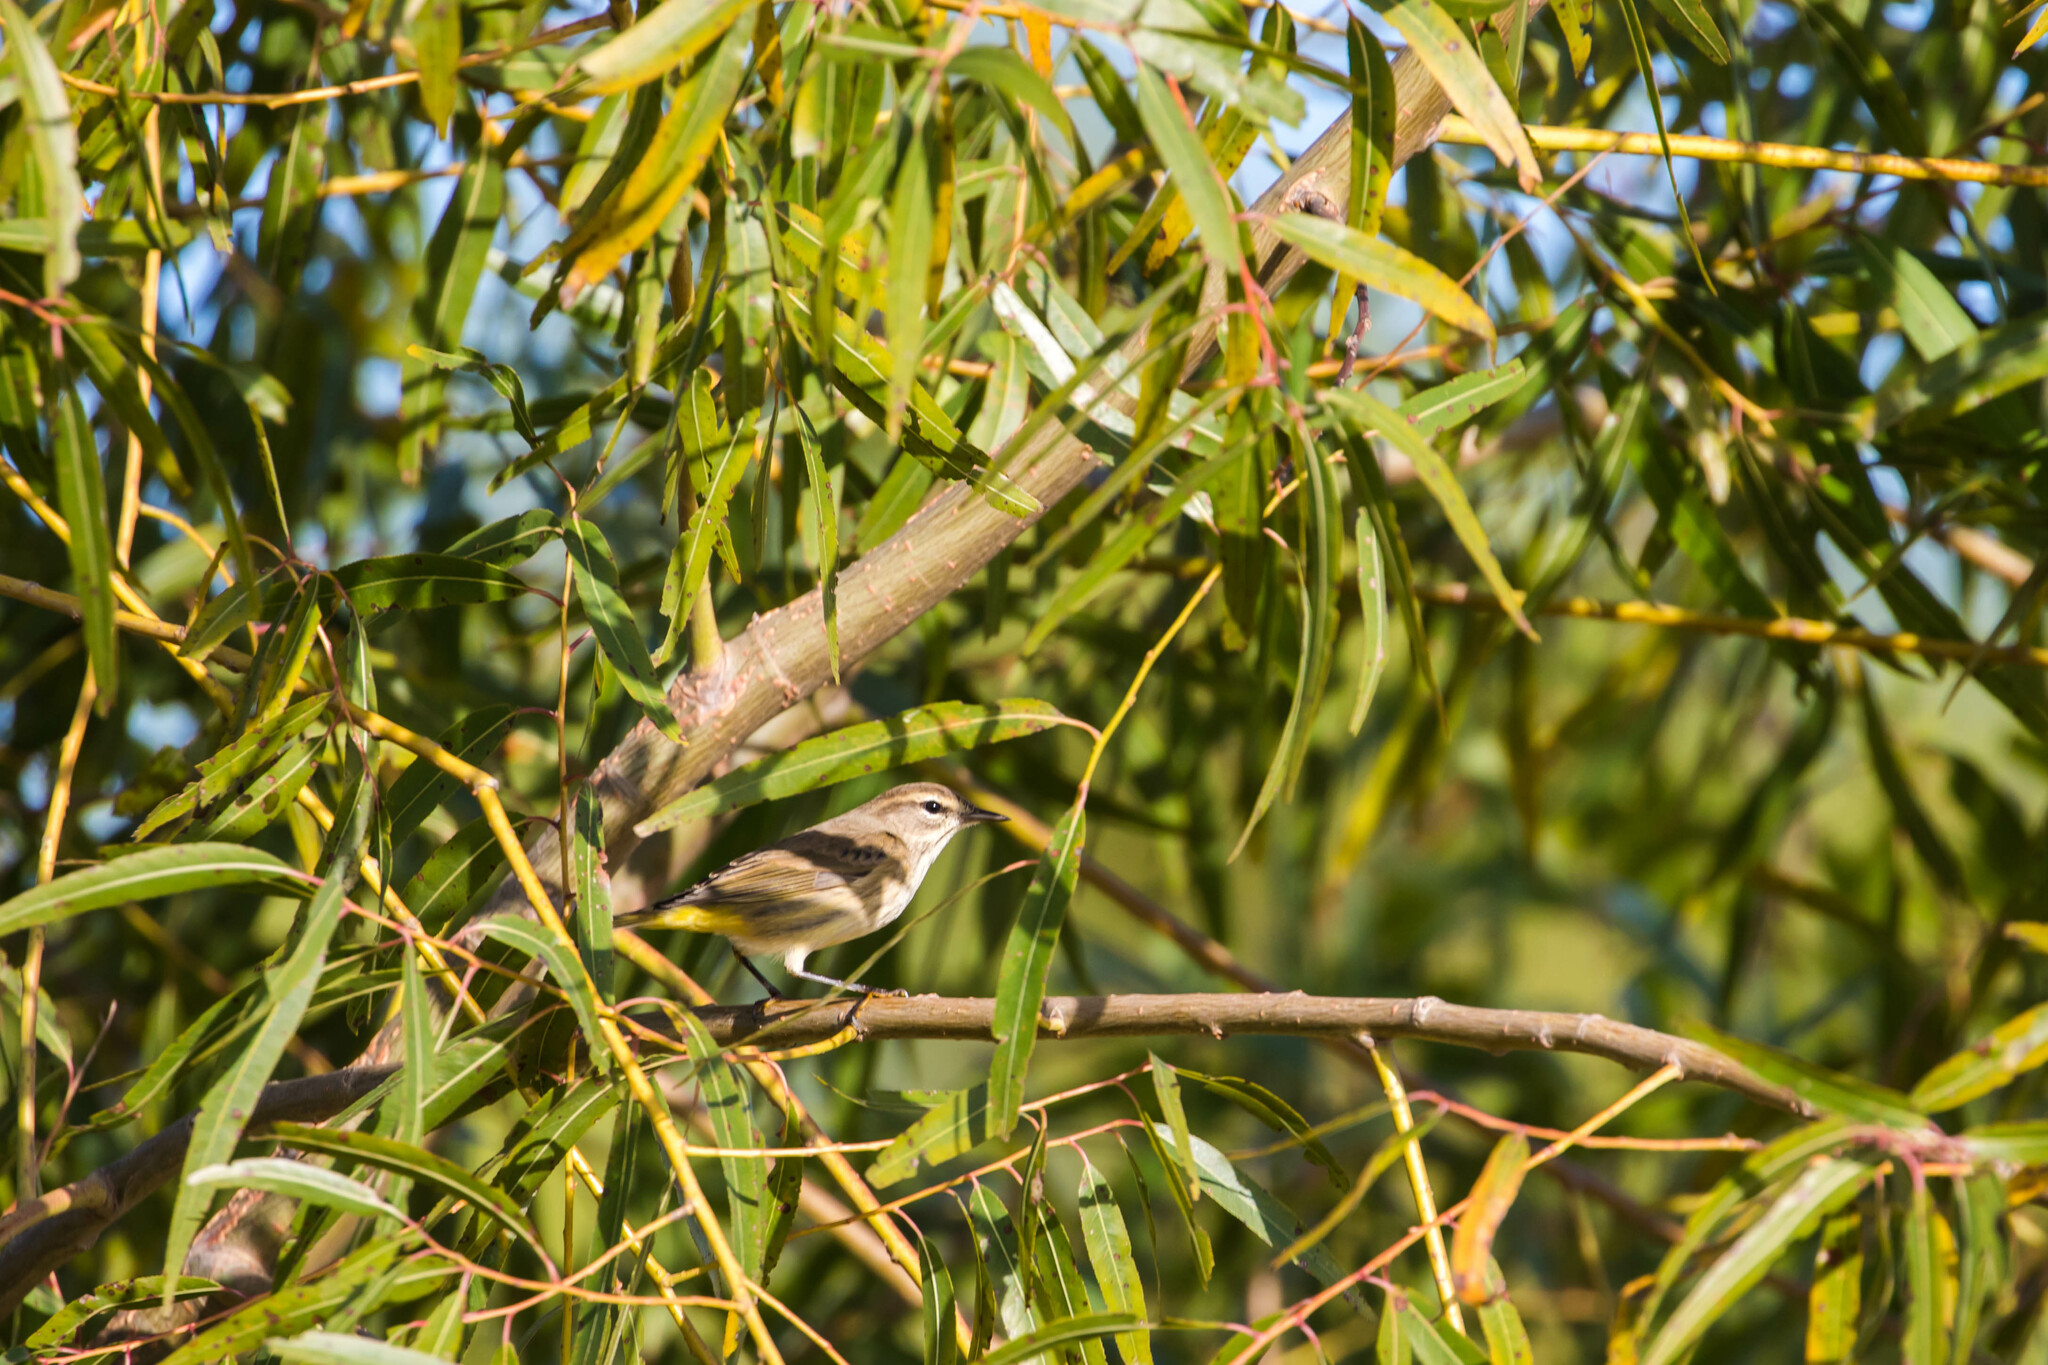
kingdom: Animalia
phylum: Chordata
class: Aves
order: Passeriformes
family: Parulidae
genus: Setophaga
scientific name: Setophaga palmarum
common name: Palm warbler
